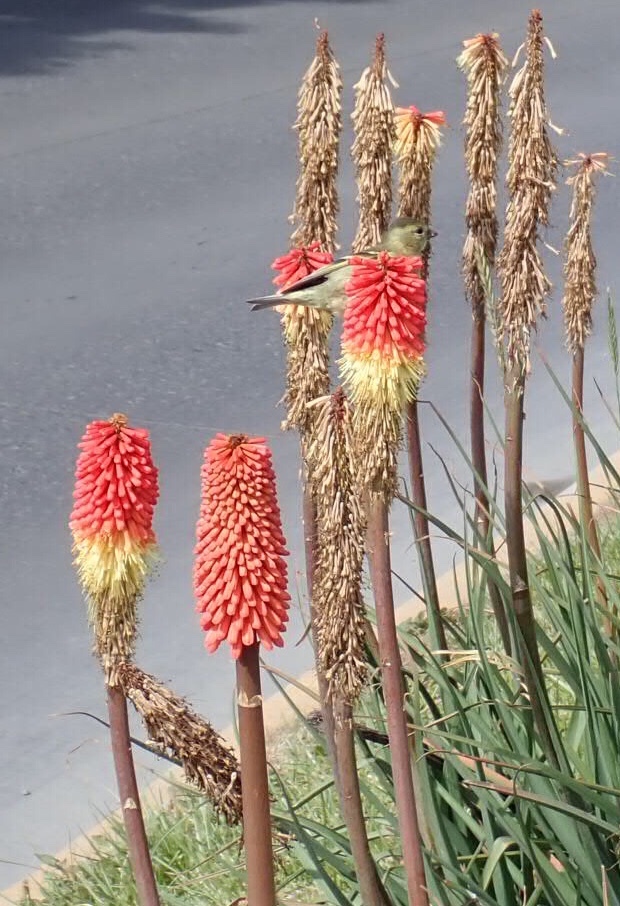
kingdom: Animalia
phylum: Chordata
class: Aves
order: Passeriformes
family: Fringillidae
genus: Spinus
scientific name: Spinus barbatus
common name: Black-chinned siskin
